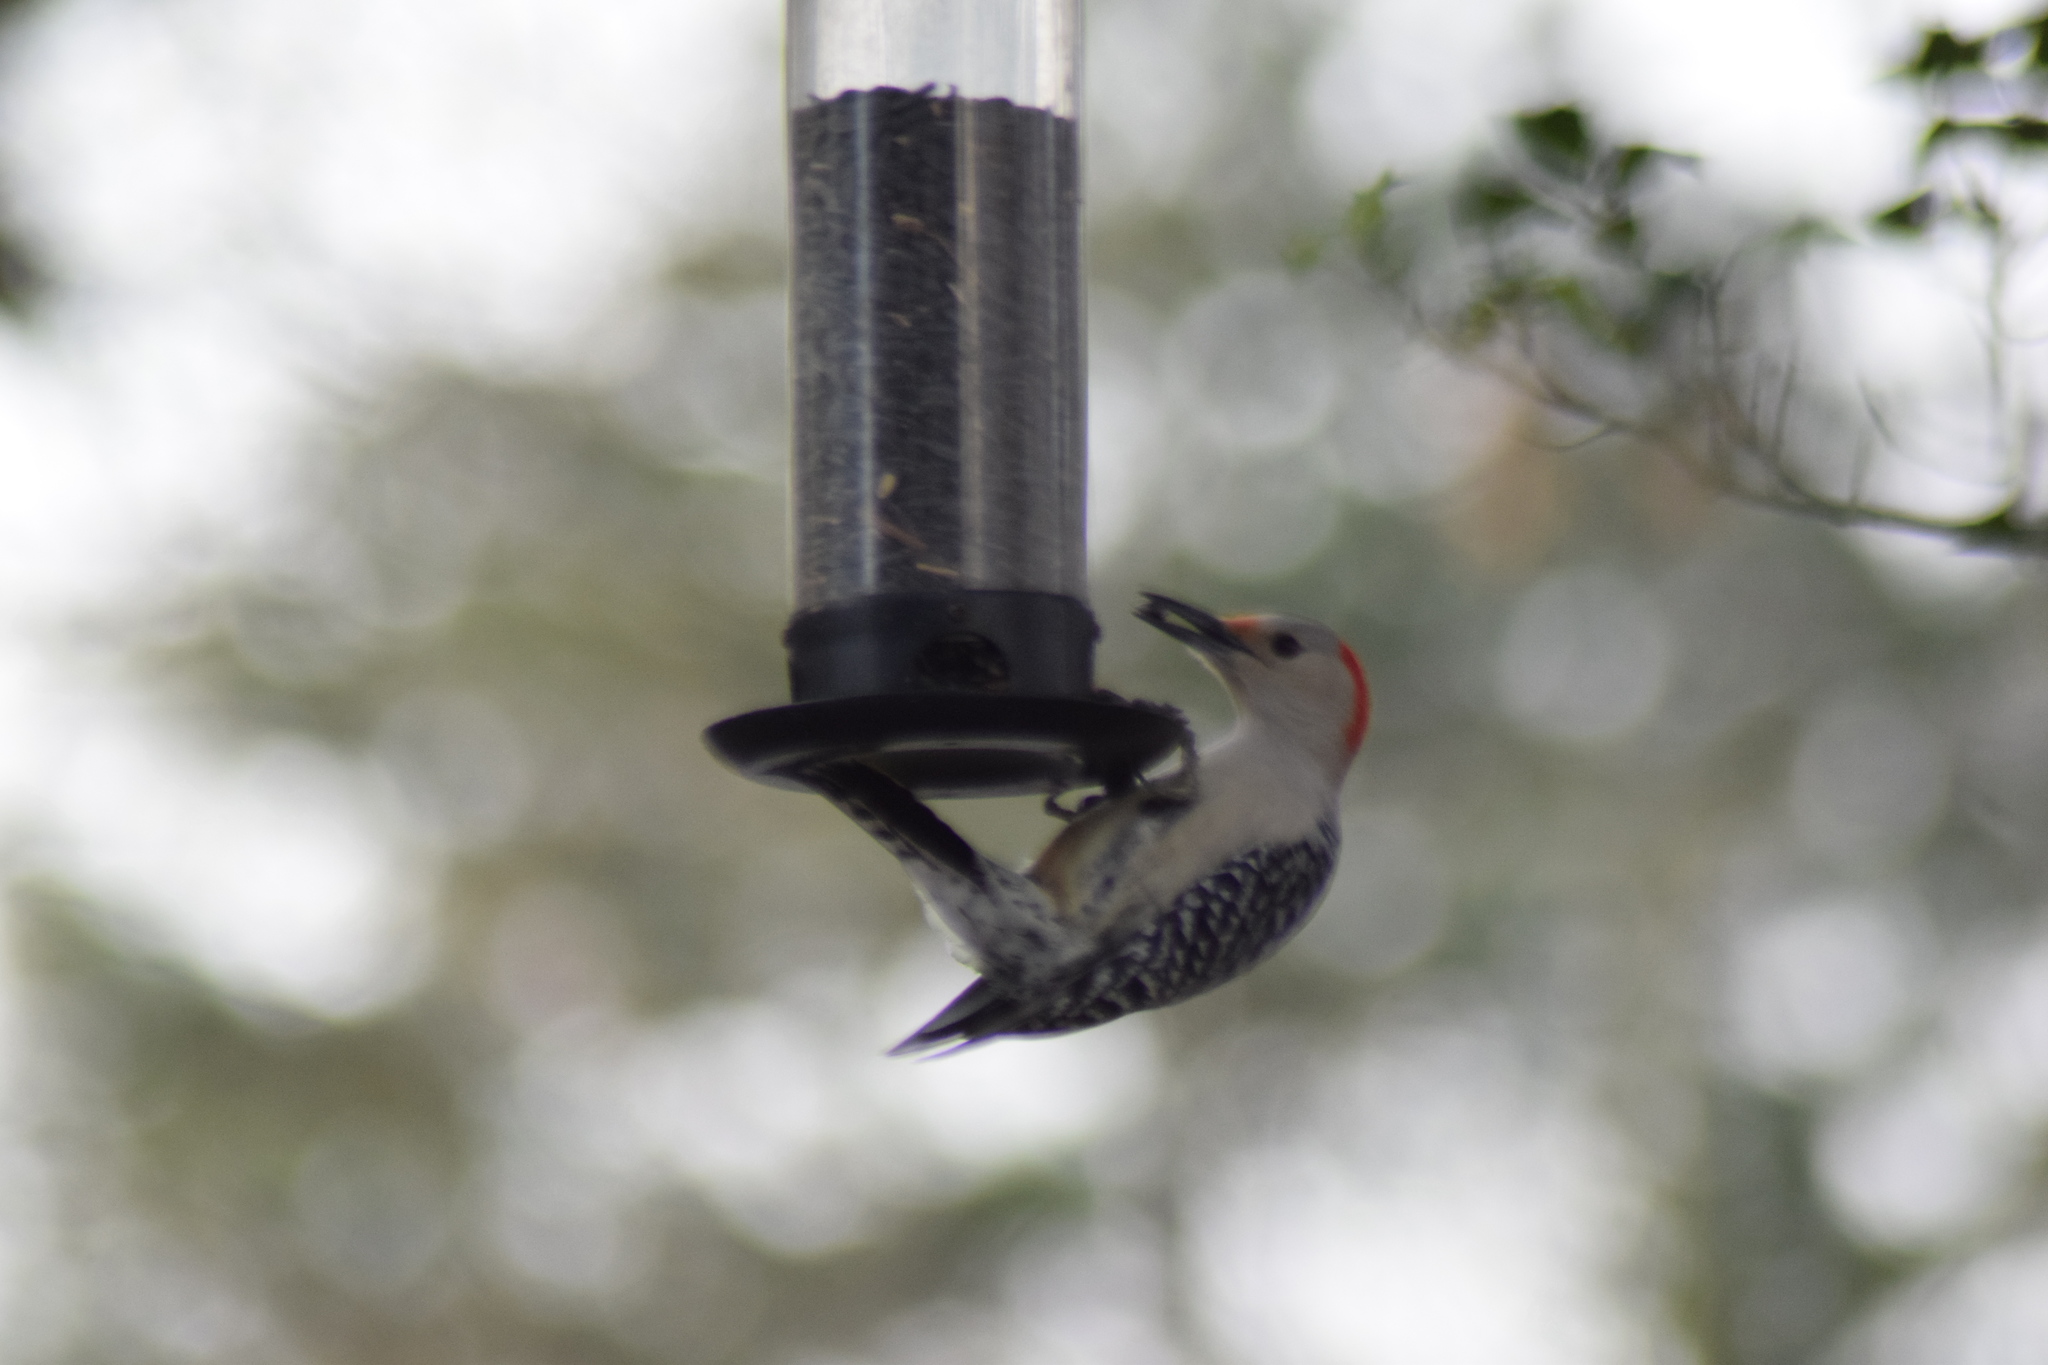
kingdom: Animalia
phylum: Chordata
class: Aves
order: Piciformes
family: Picidae
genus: Melanerpes
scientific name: Melanerpes carolinus
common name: Red-bellied woodpecker
